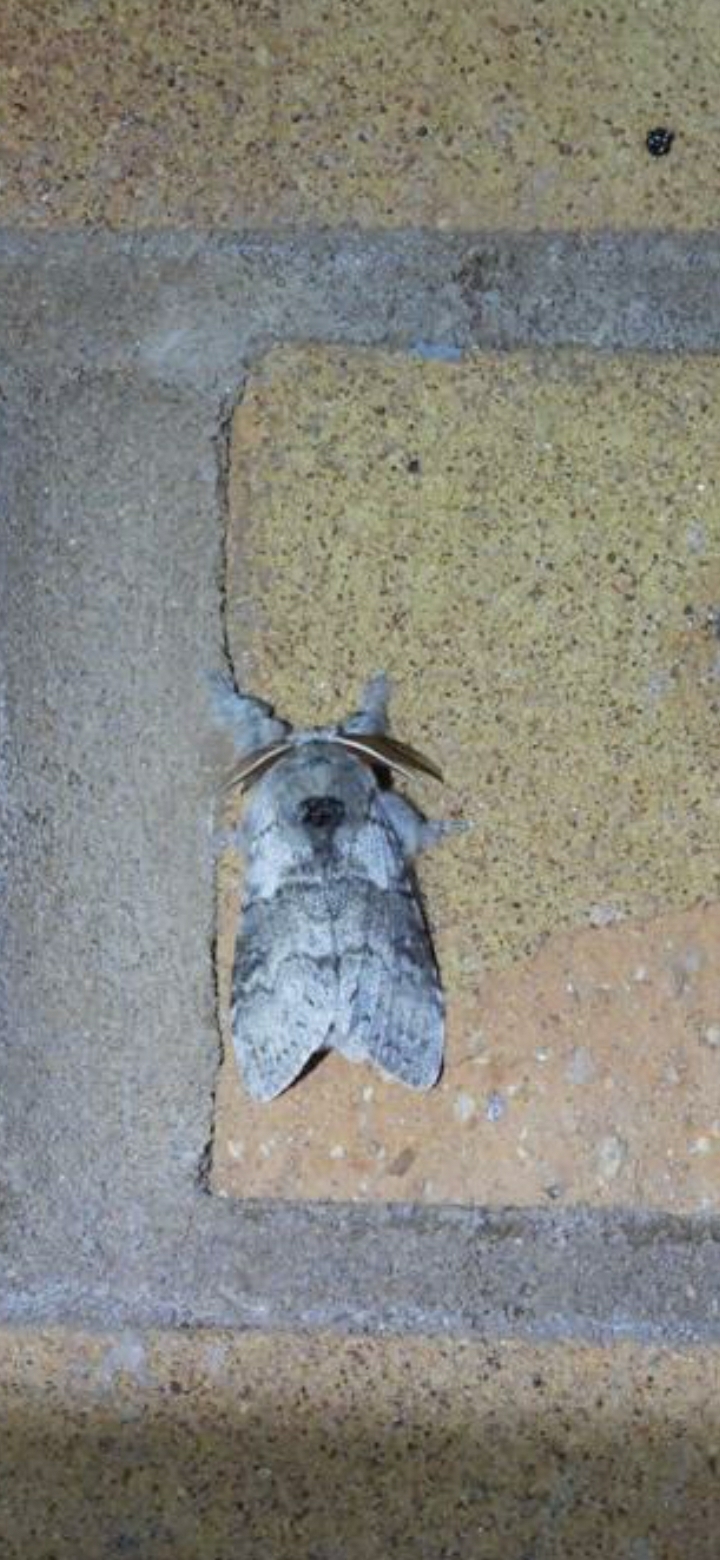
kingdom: Animalia
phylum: Arthropoda
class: Insecta
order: Lepidoptera
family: Erebidae
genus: Calliteara
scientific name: Calliteara pudibunda
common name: Pale tussock
